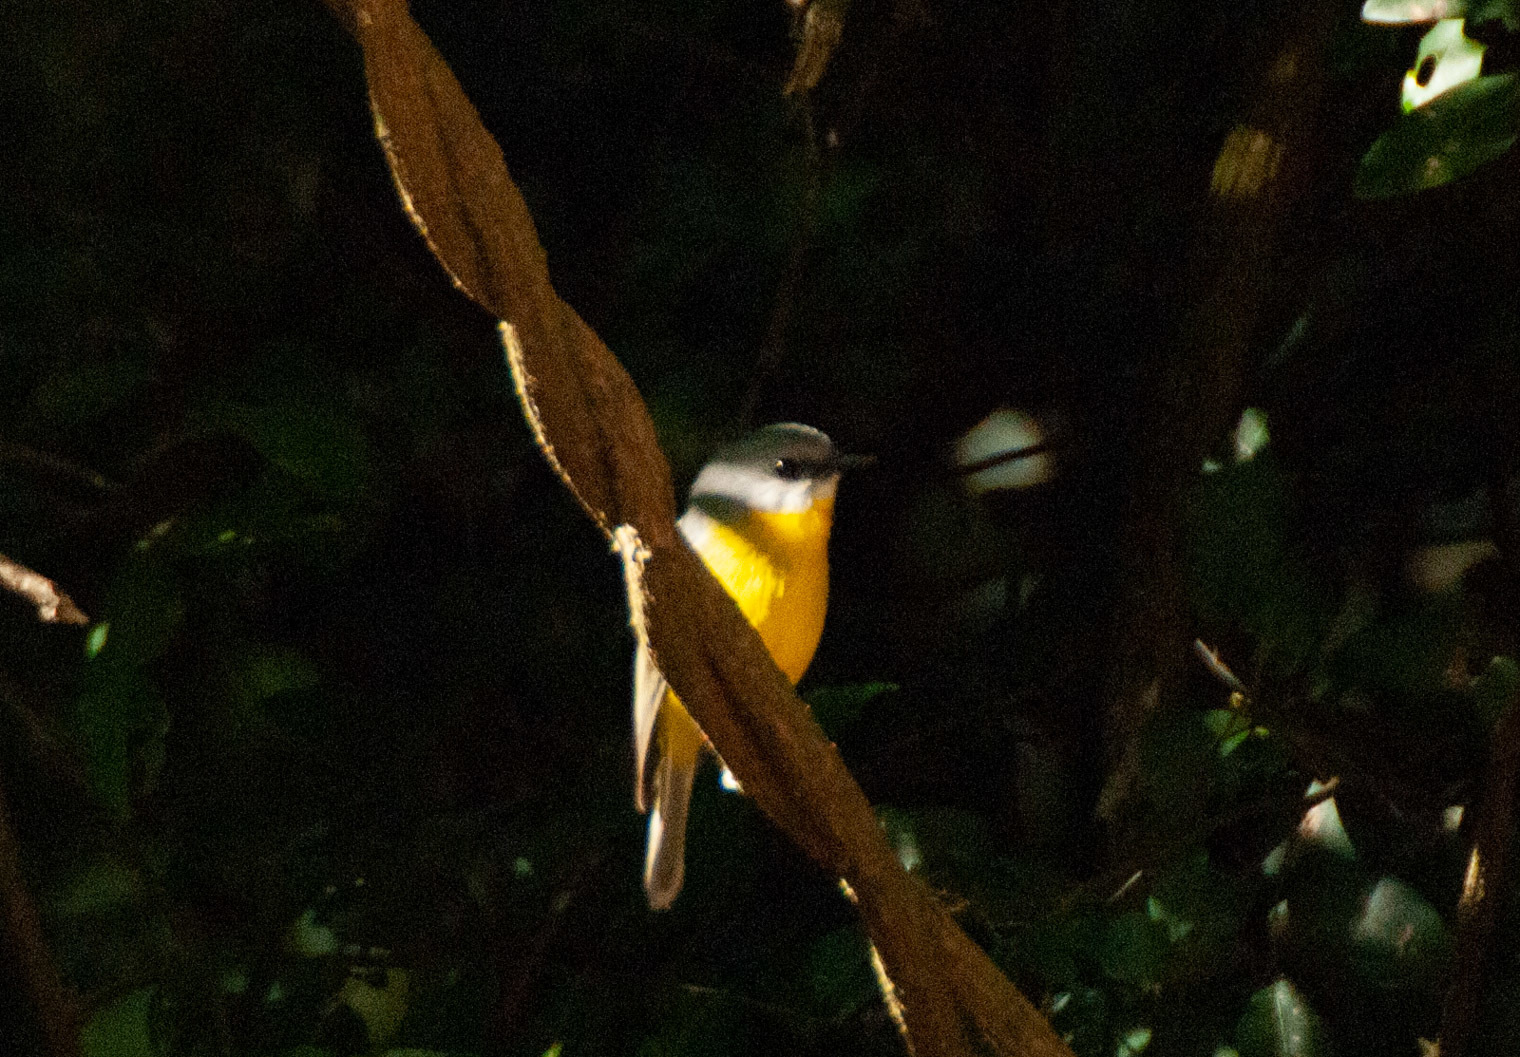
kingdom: Animalia
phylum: Chordata
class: Aves
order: Passeriformes
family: Petroicidae
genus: Eopsaltria
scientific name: Eopsaltria australis
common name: Eastern yellow robin
